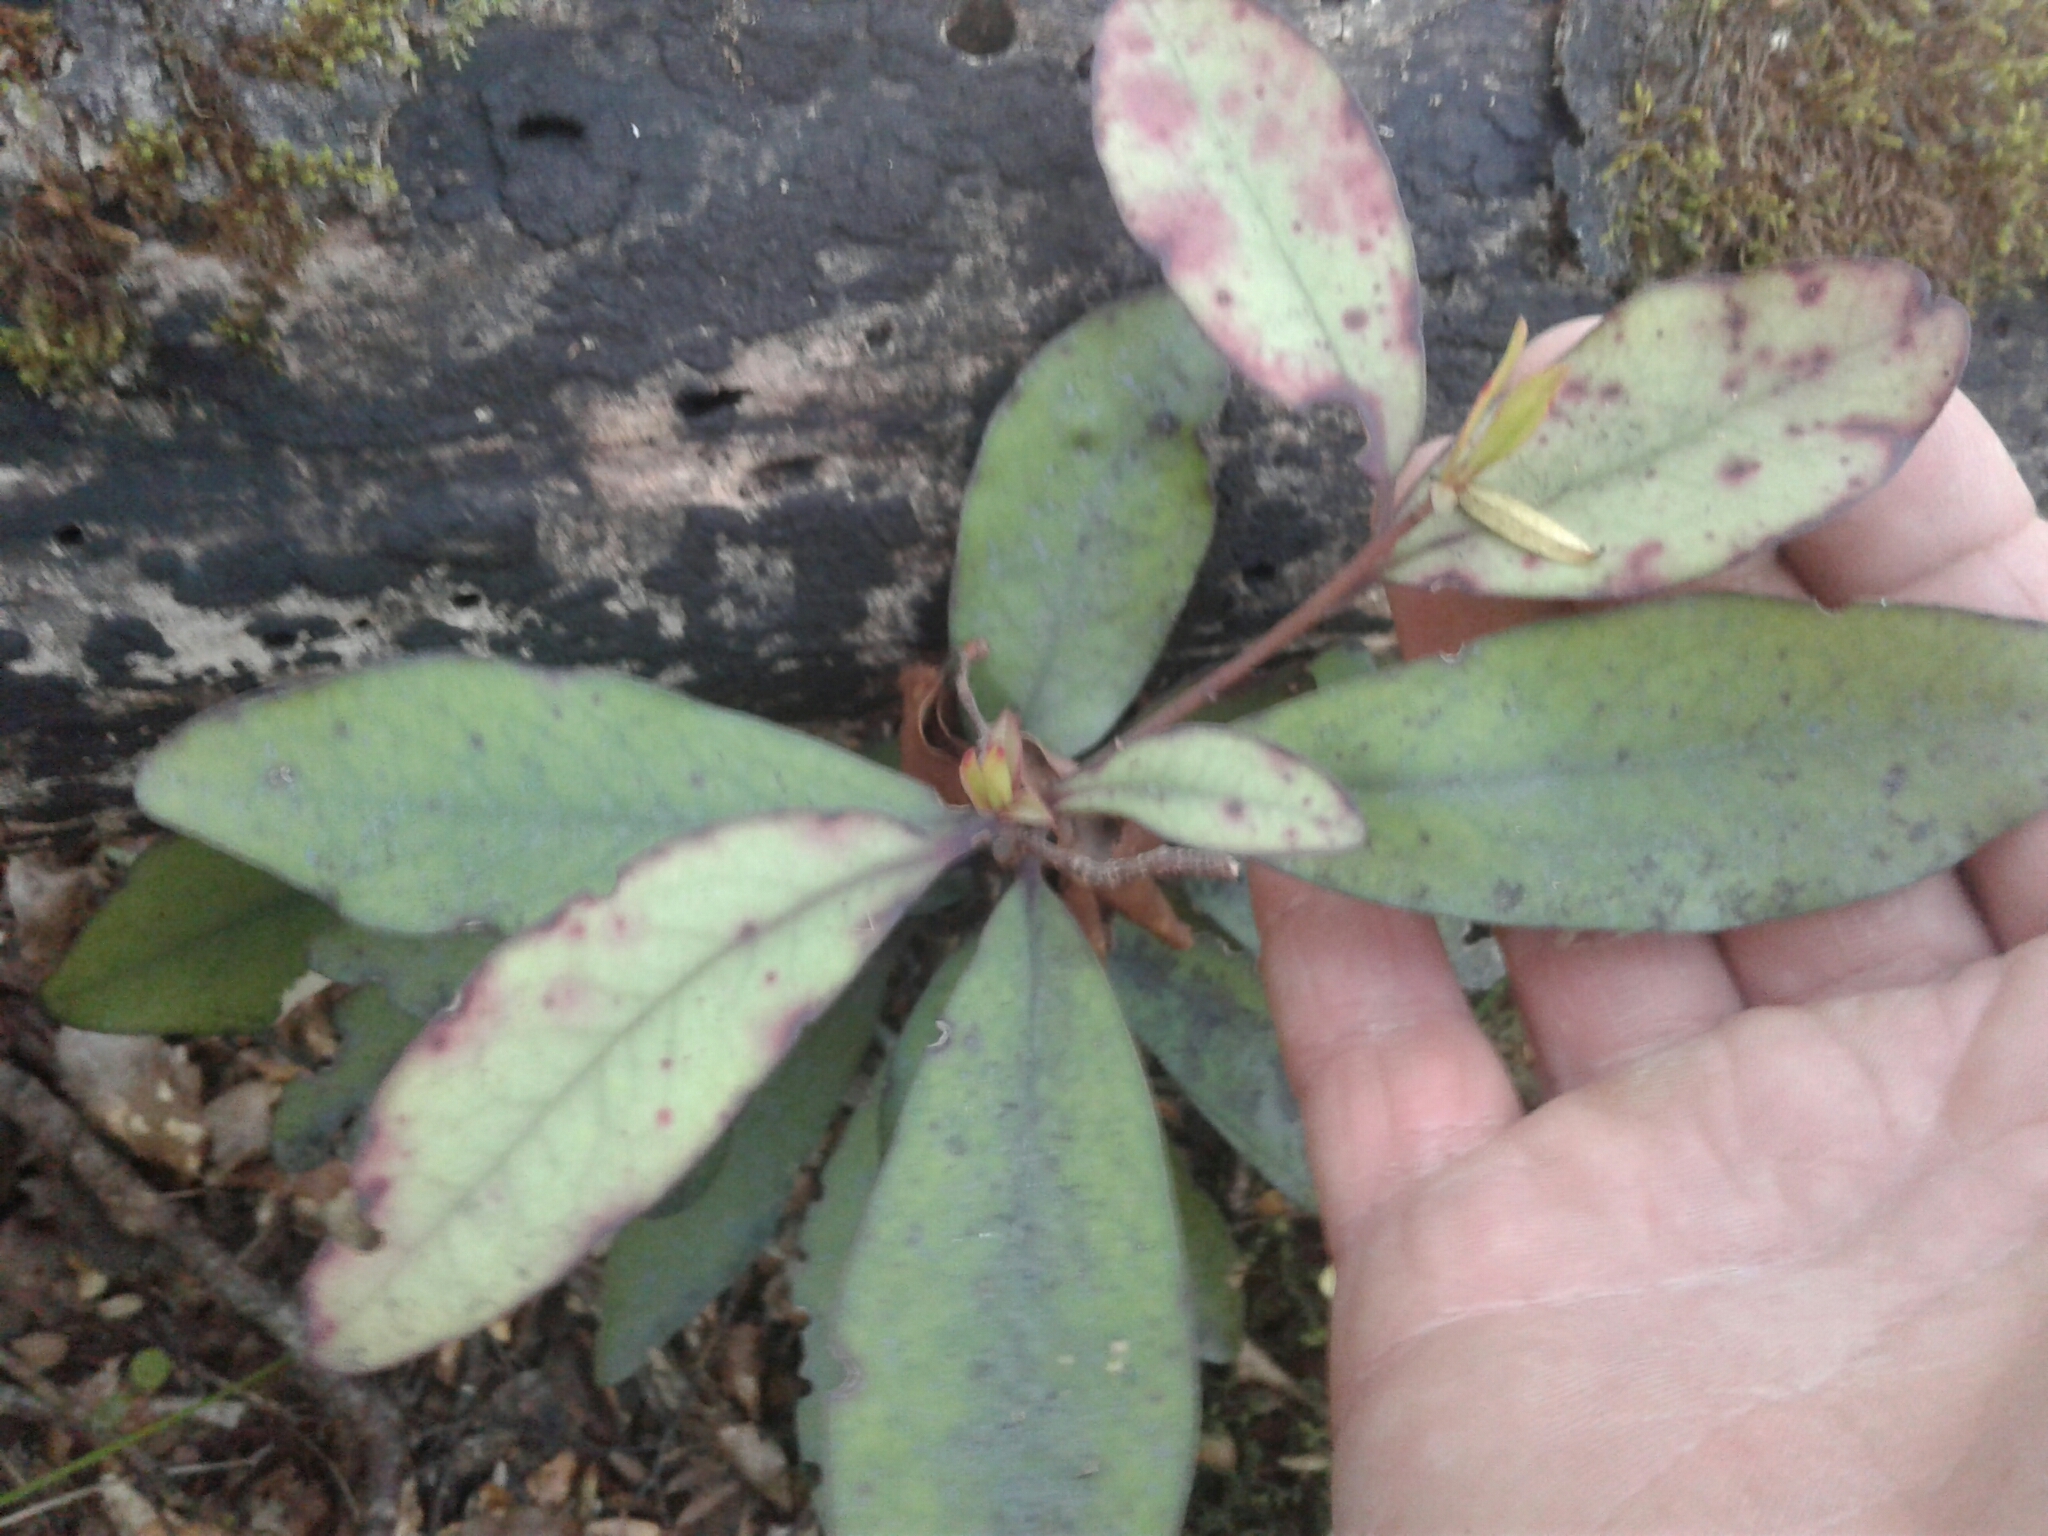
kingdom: Plantae
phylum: Tracheophyta
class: Magnoliopsida
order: Canellales
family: Winteraceae
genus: Pseudowintera
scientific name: Pseudowintera colorata
